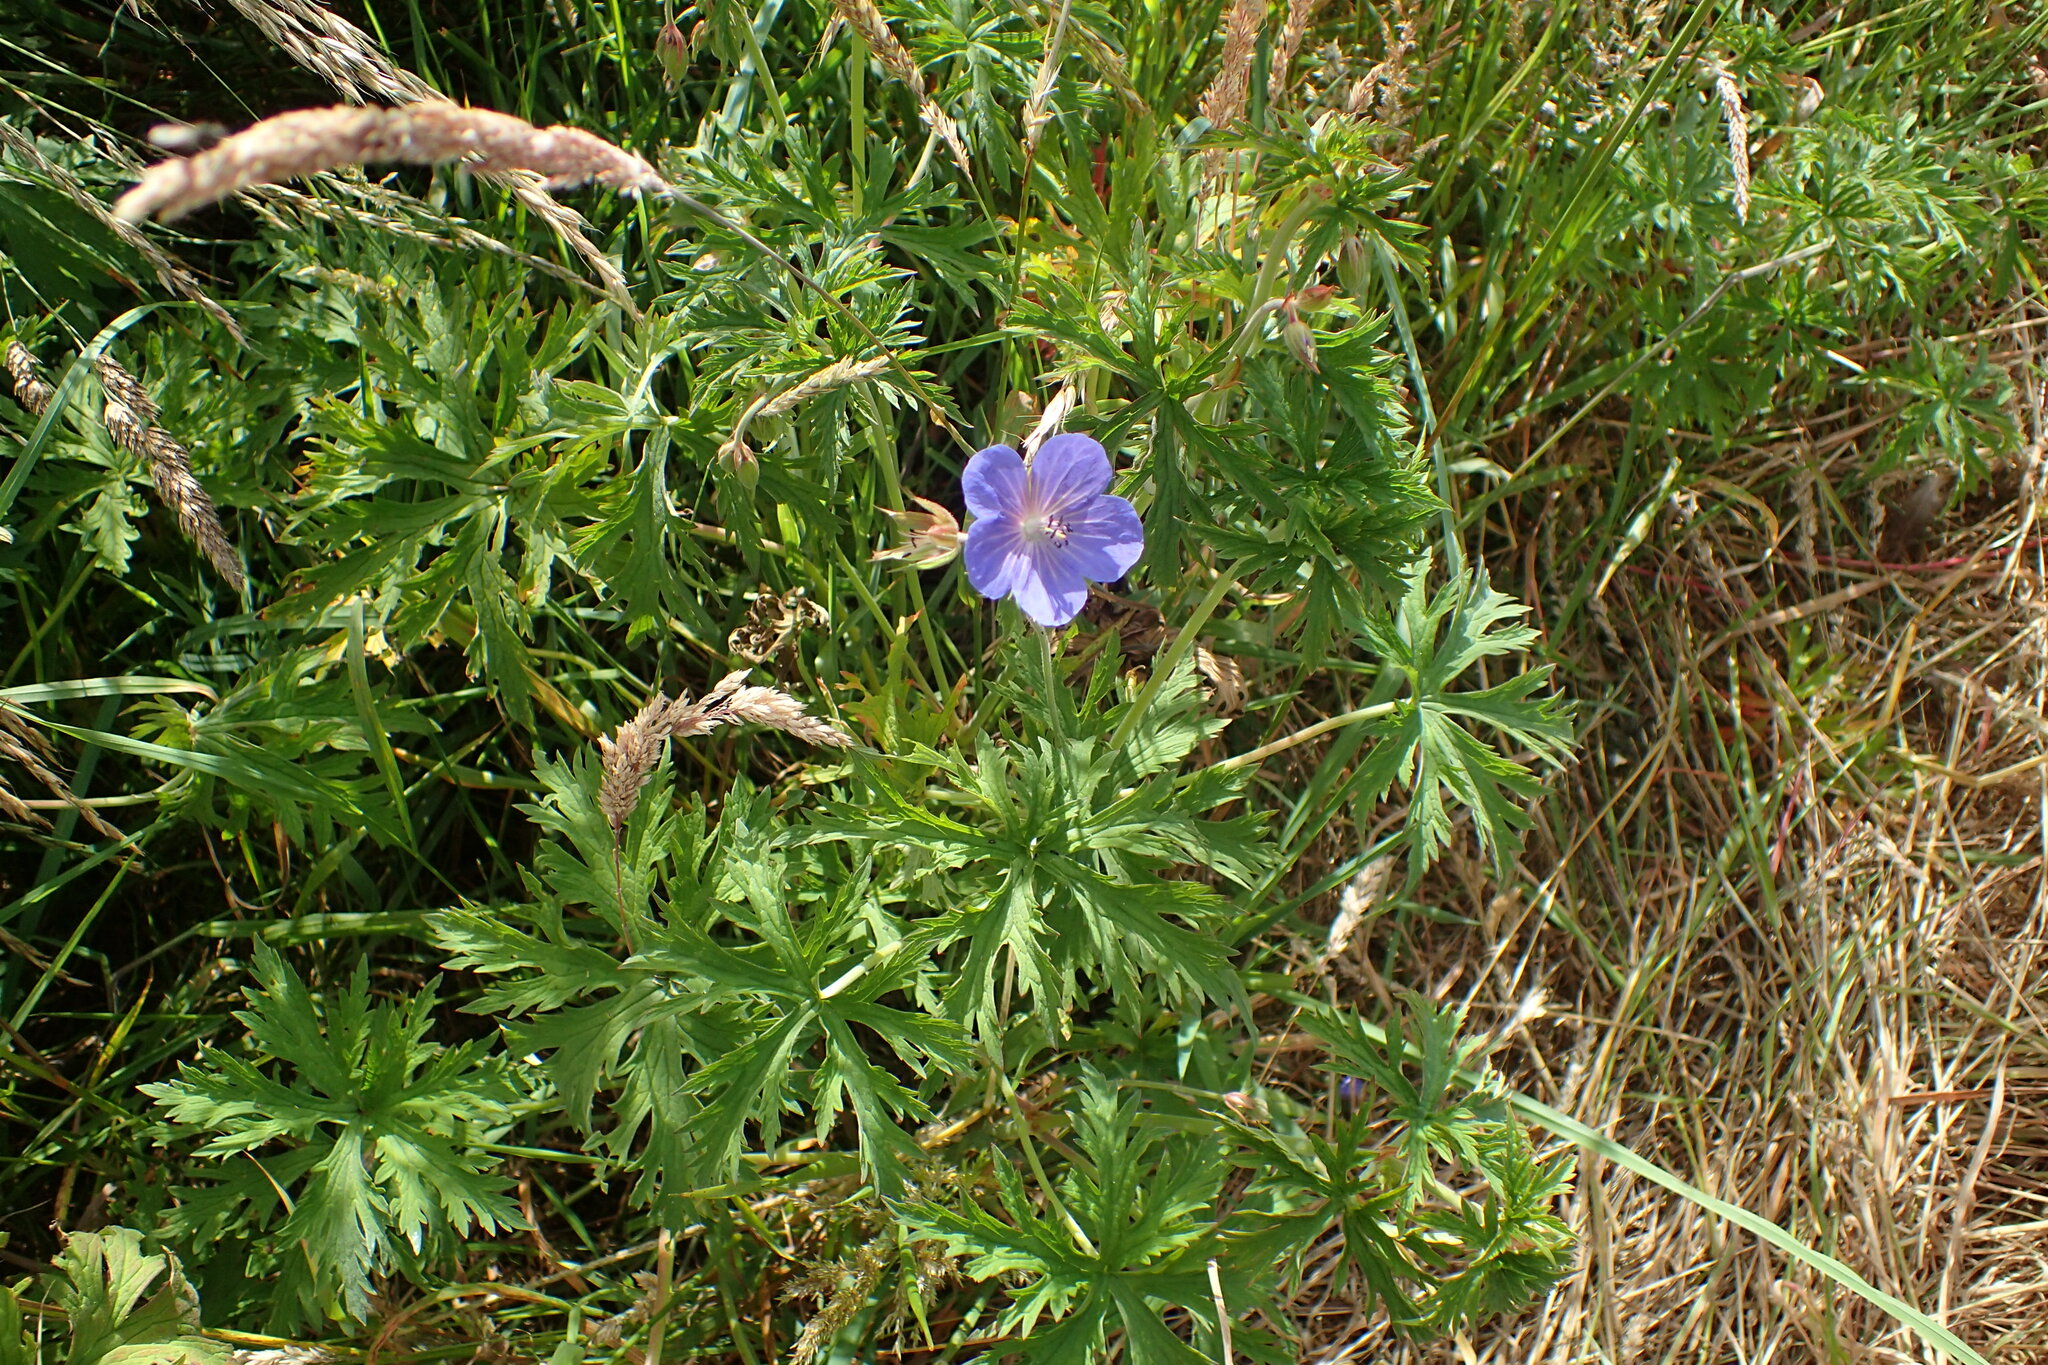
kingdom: Plantae
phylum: Tracheophyta
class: Magnoliopsida
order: Geraniales
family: Geraniaceae
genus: Geranium
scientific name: Geranium pratense
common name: Meadow crane's-bill
